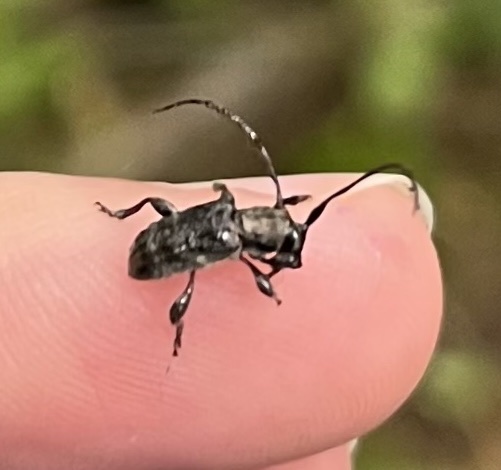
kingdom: Animalia
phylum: Arthropoda
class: Insecta
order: Coleoptera
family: Cerambycidae
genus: Ecyrus
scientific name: Ecyrus dasycerus
